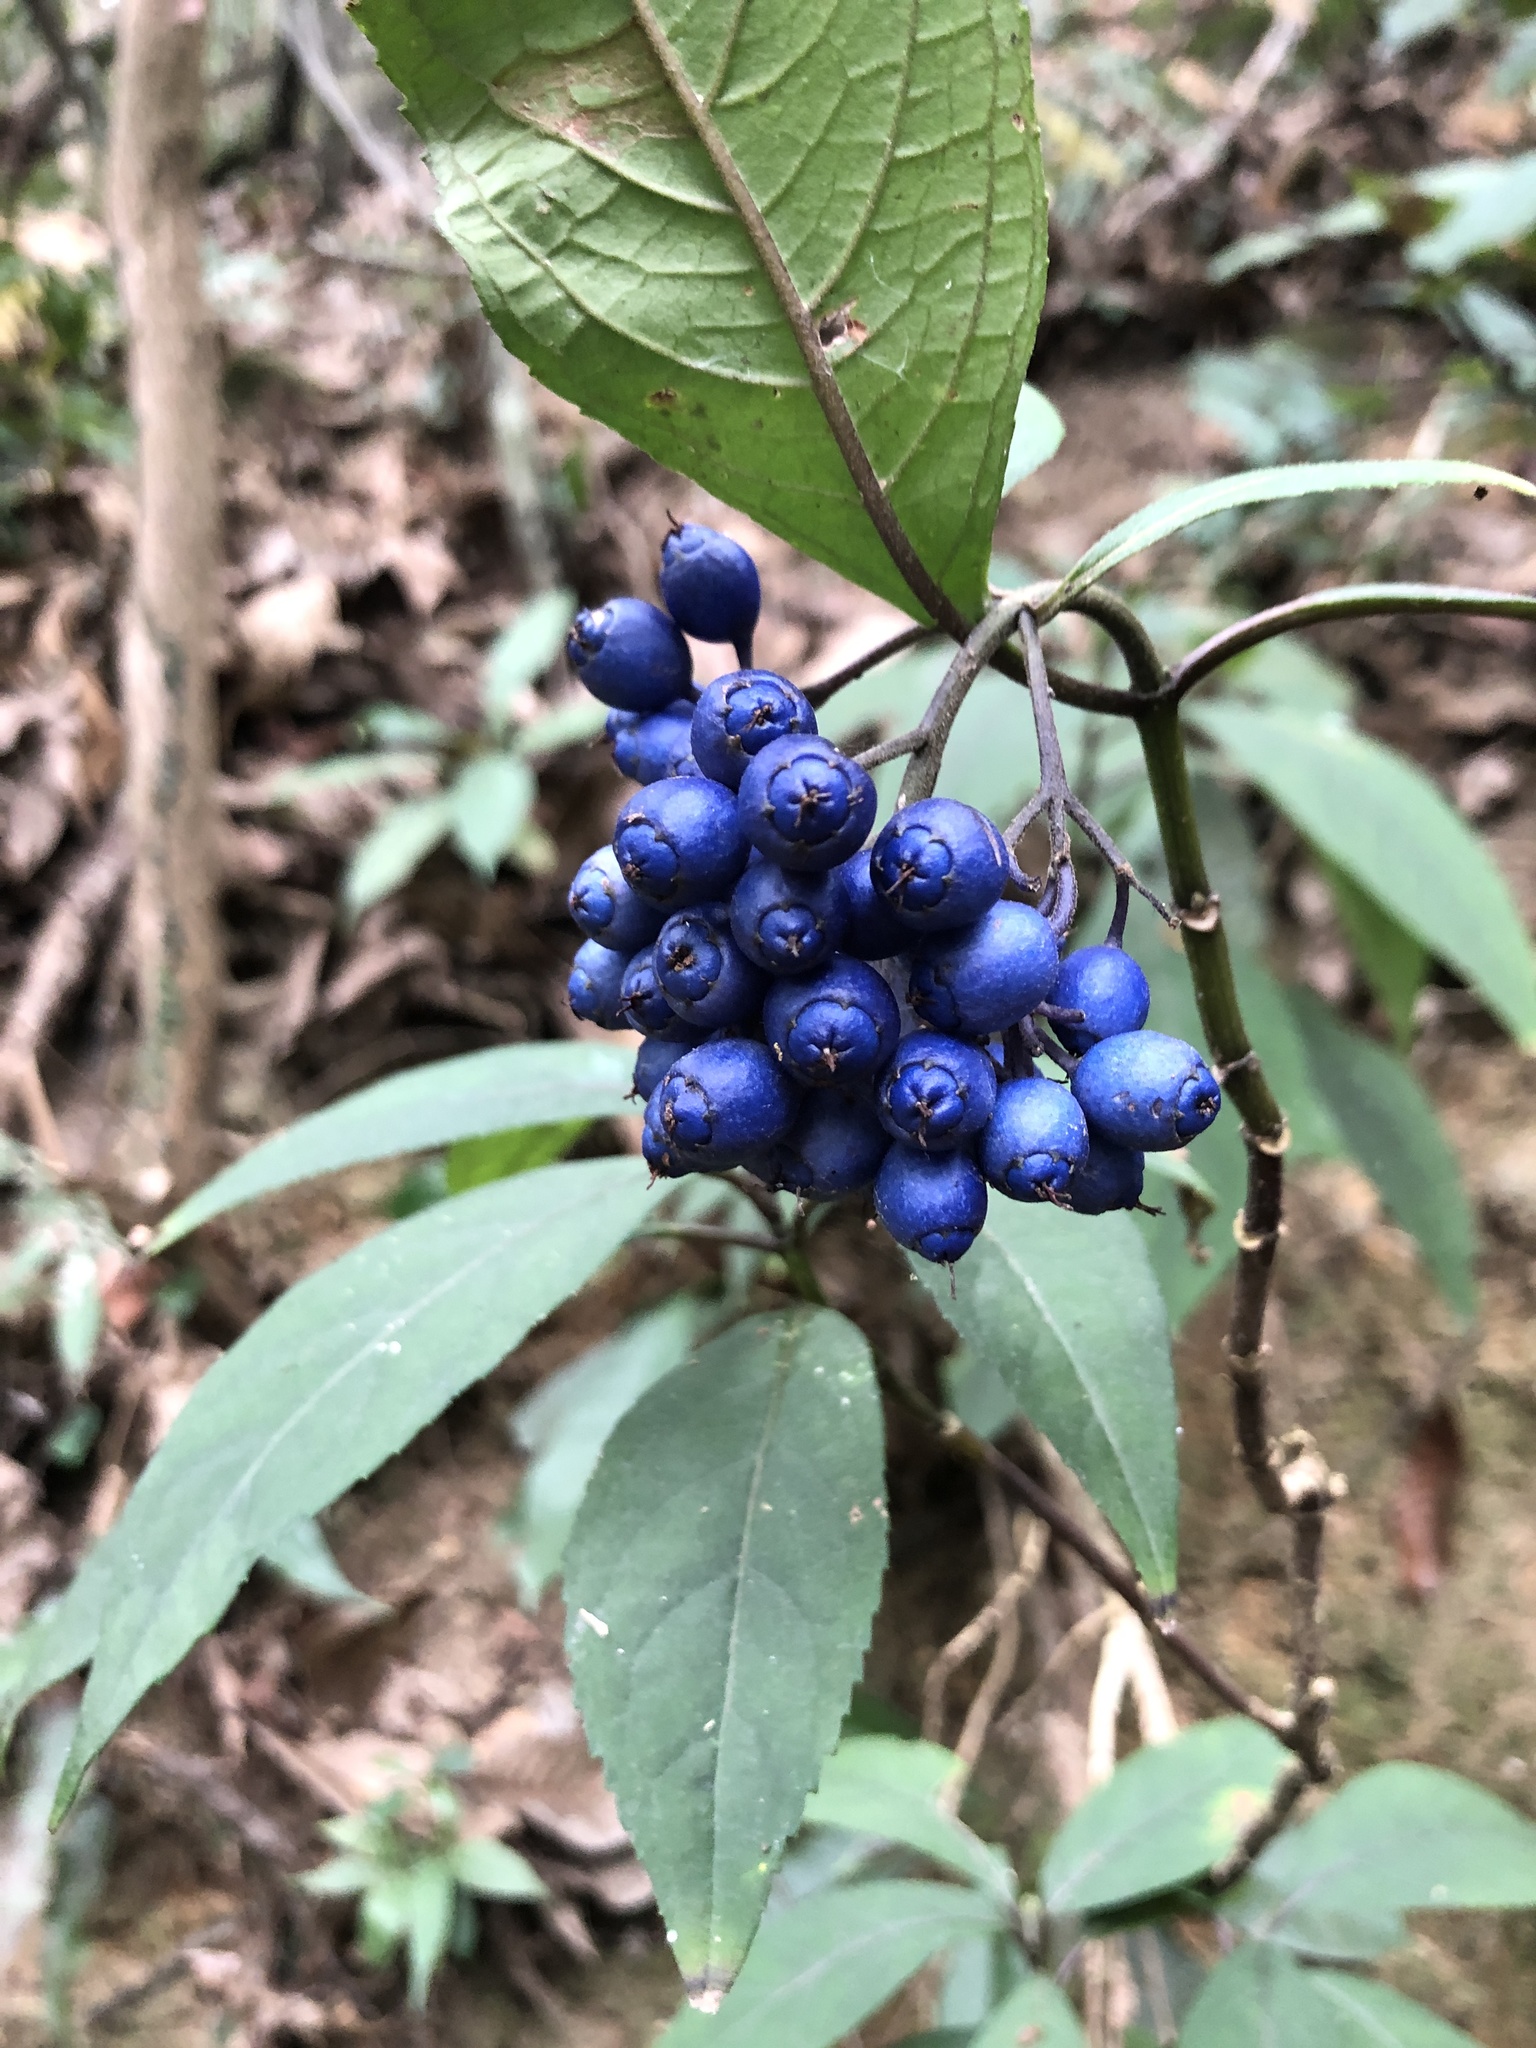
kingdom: Plantae
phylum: Tracheophyta
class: Magnoliopsida
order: Cornales
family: Hydrangeaceae
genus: Hydrangea
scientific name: Hydrangea febrifuga
